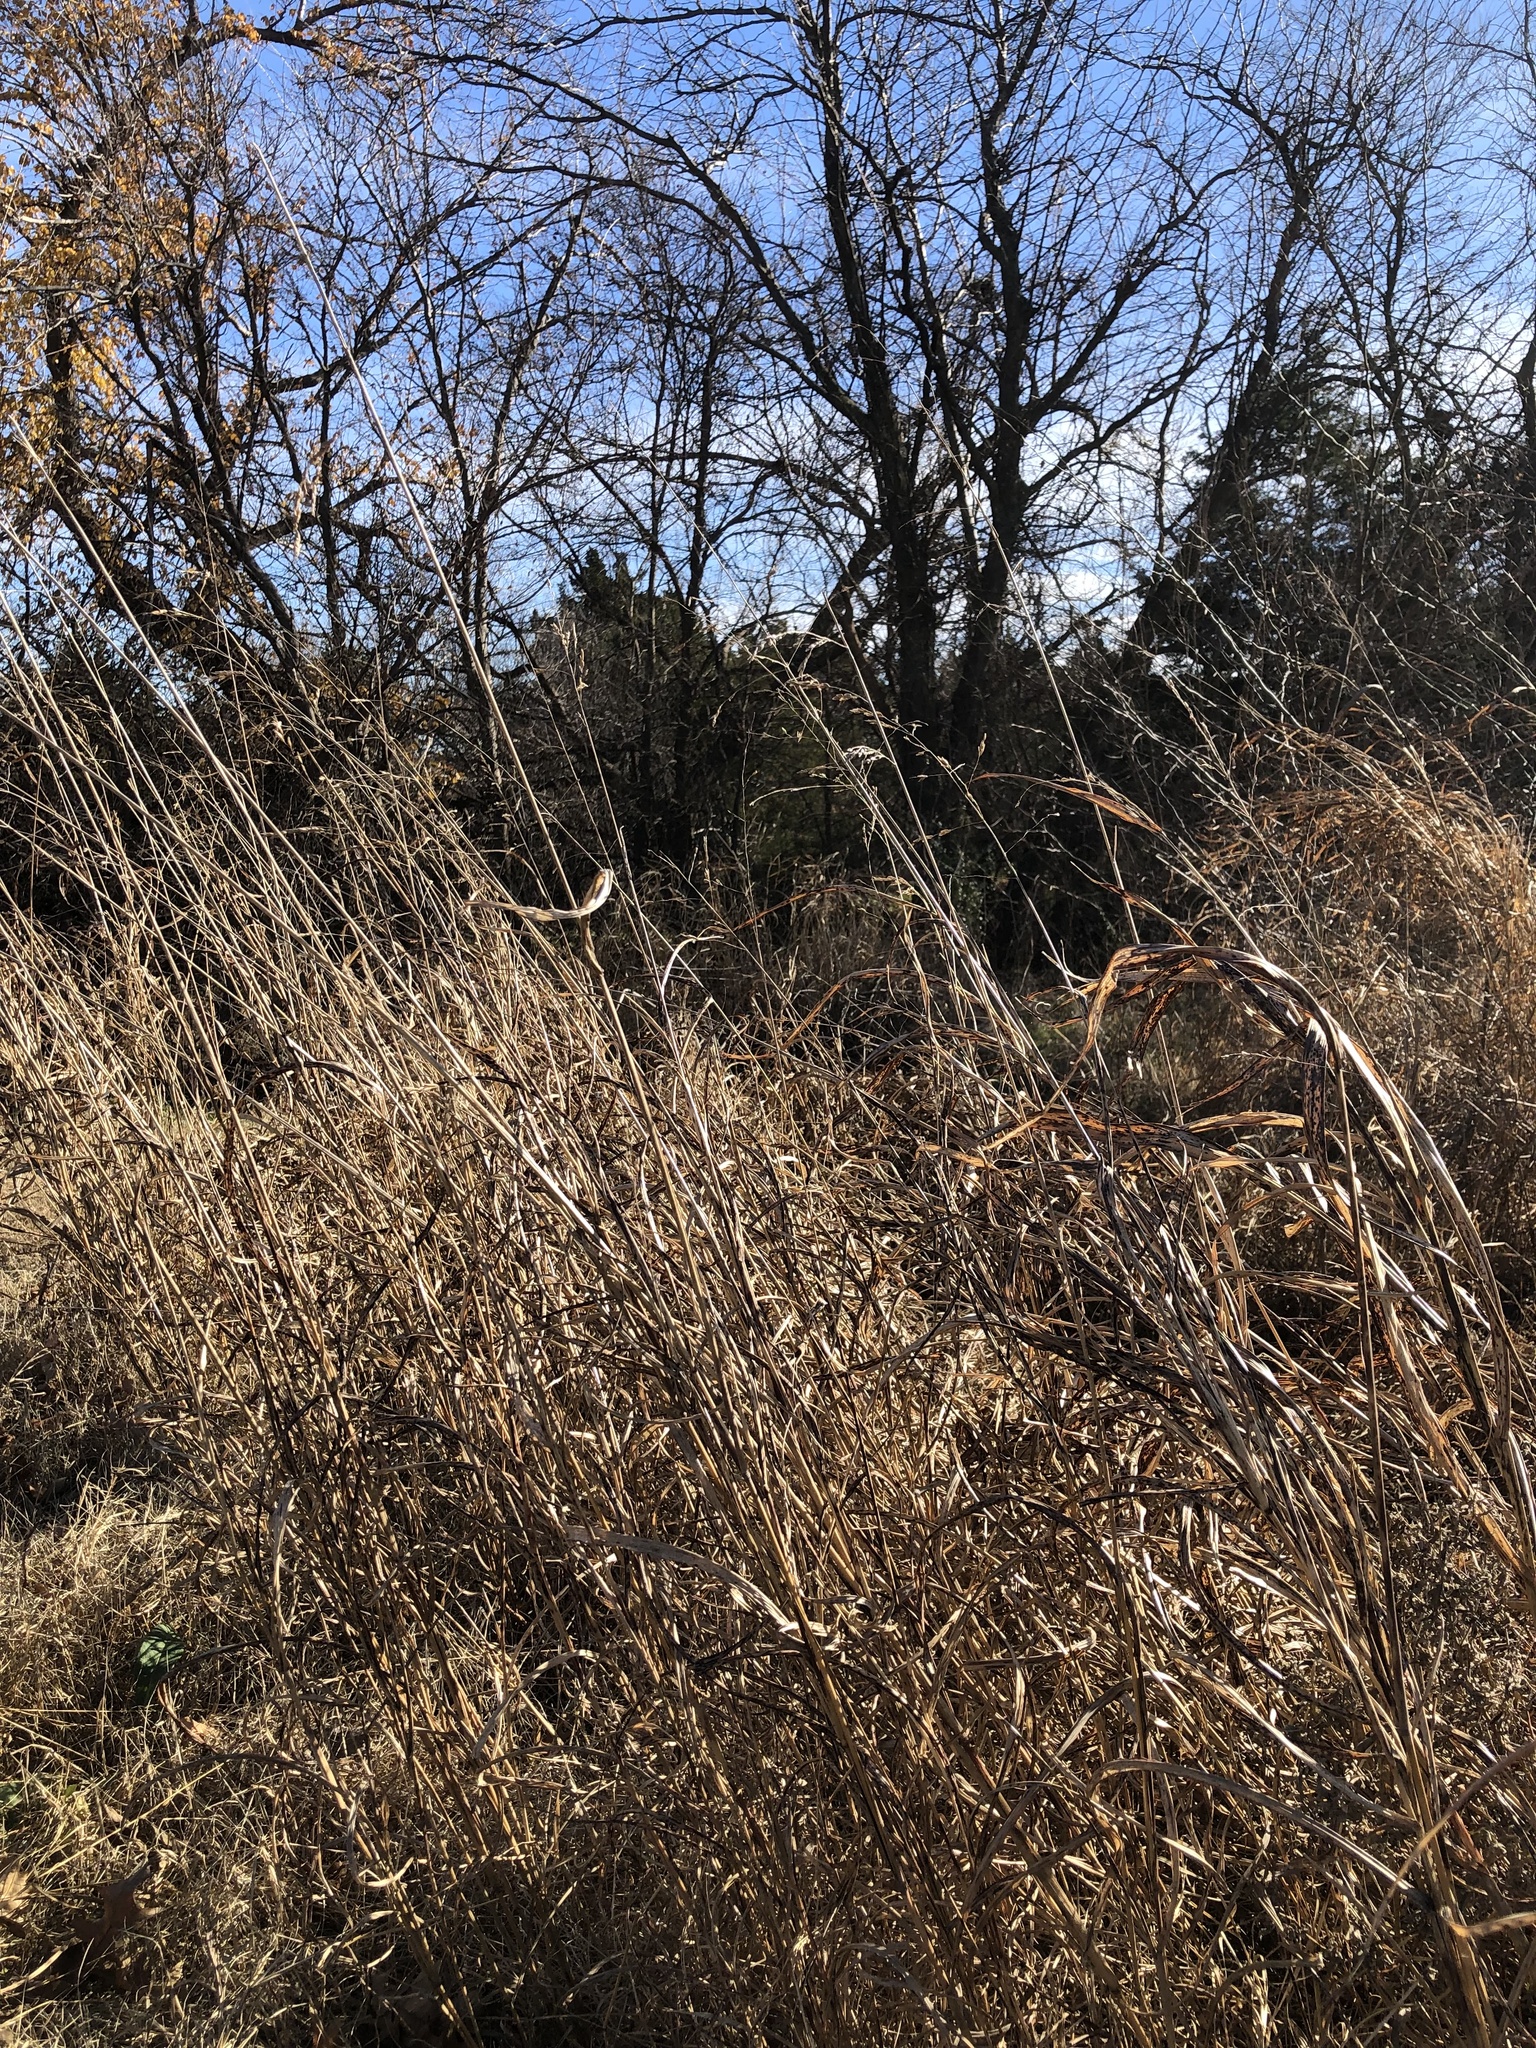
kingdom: Plantae
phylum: Tracheophyta
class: Liliopsida
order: Poales
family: Poaceae
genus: Sorghum
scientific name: Sorghum halepense
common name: Johnson-grass
